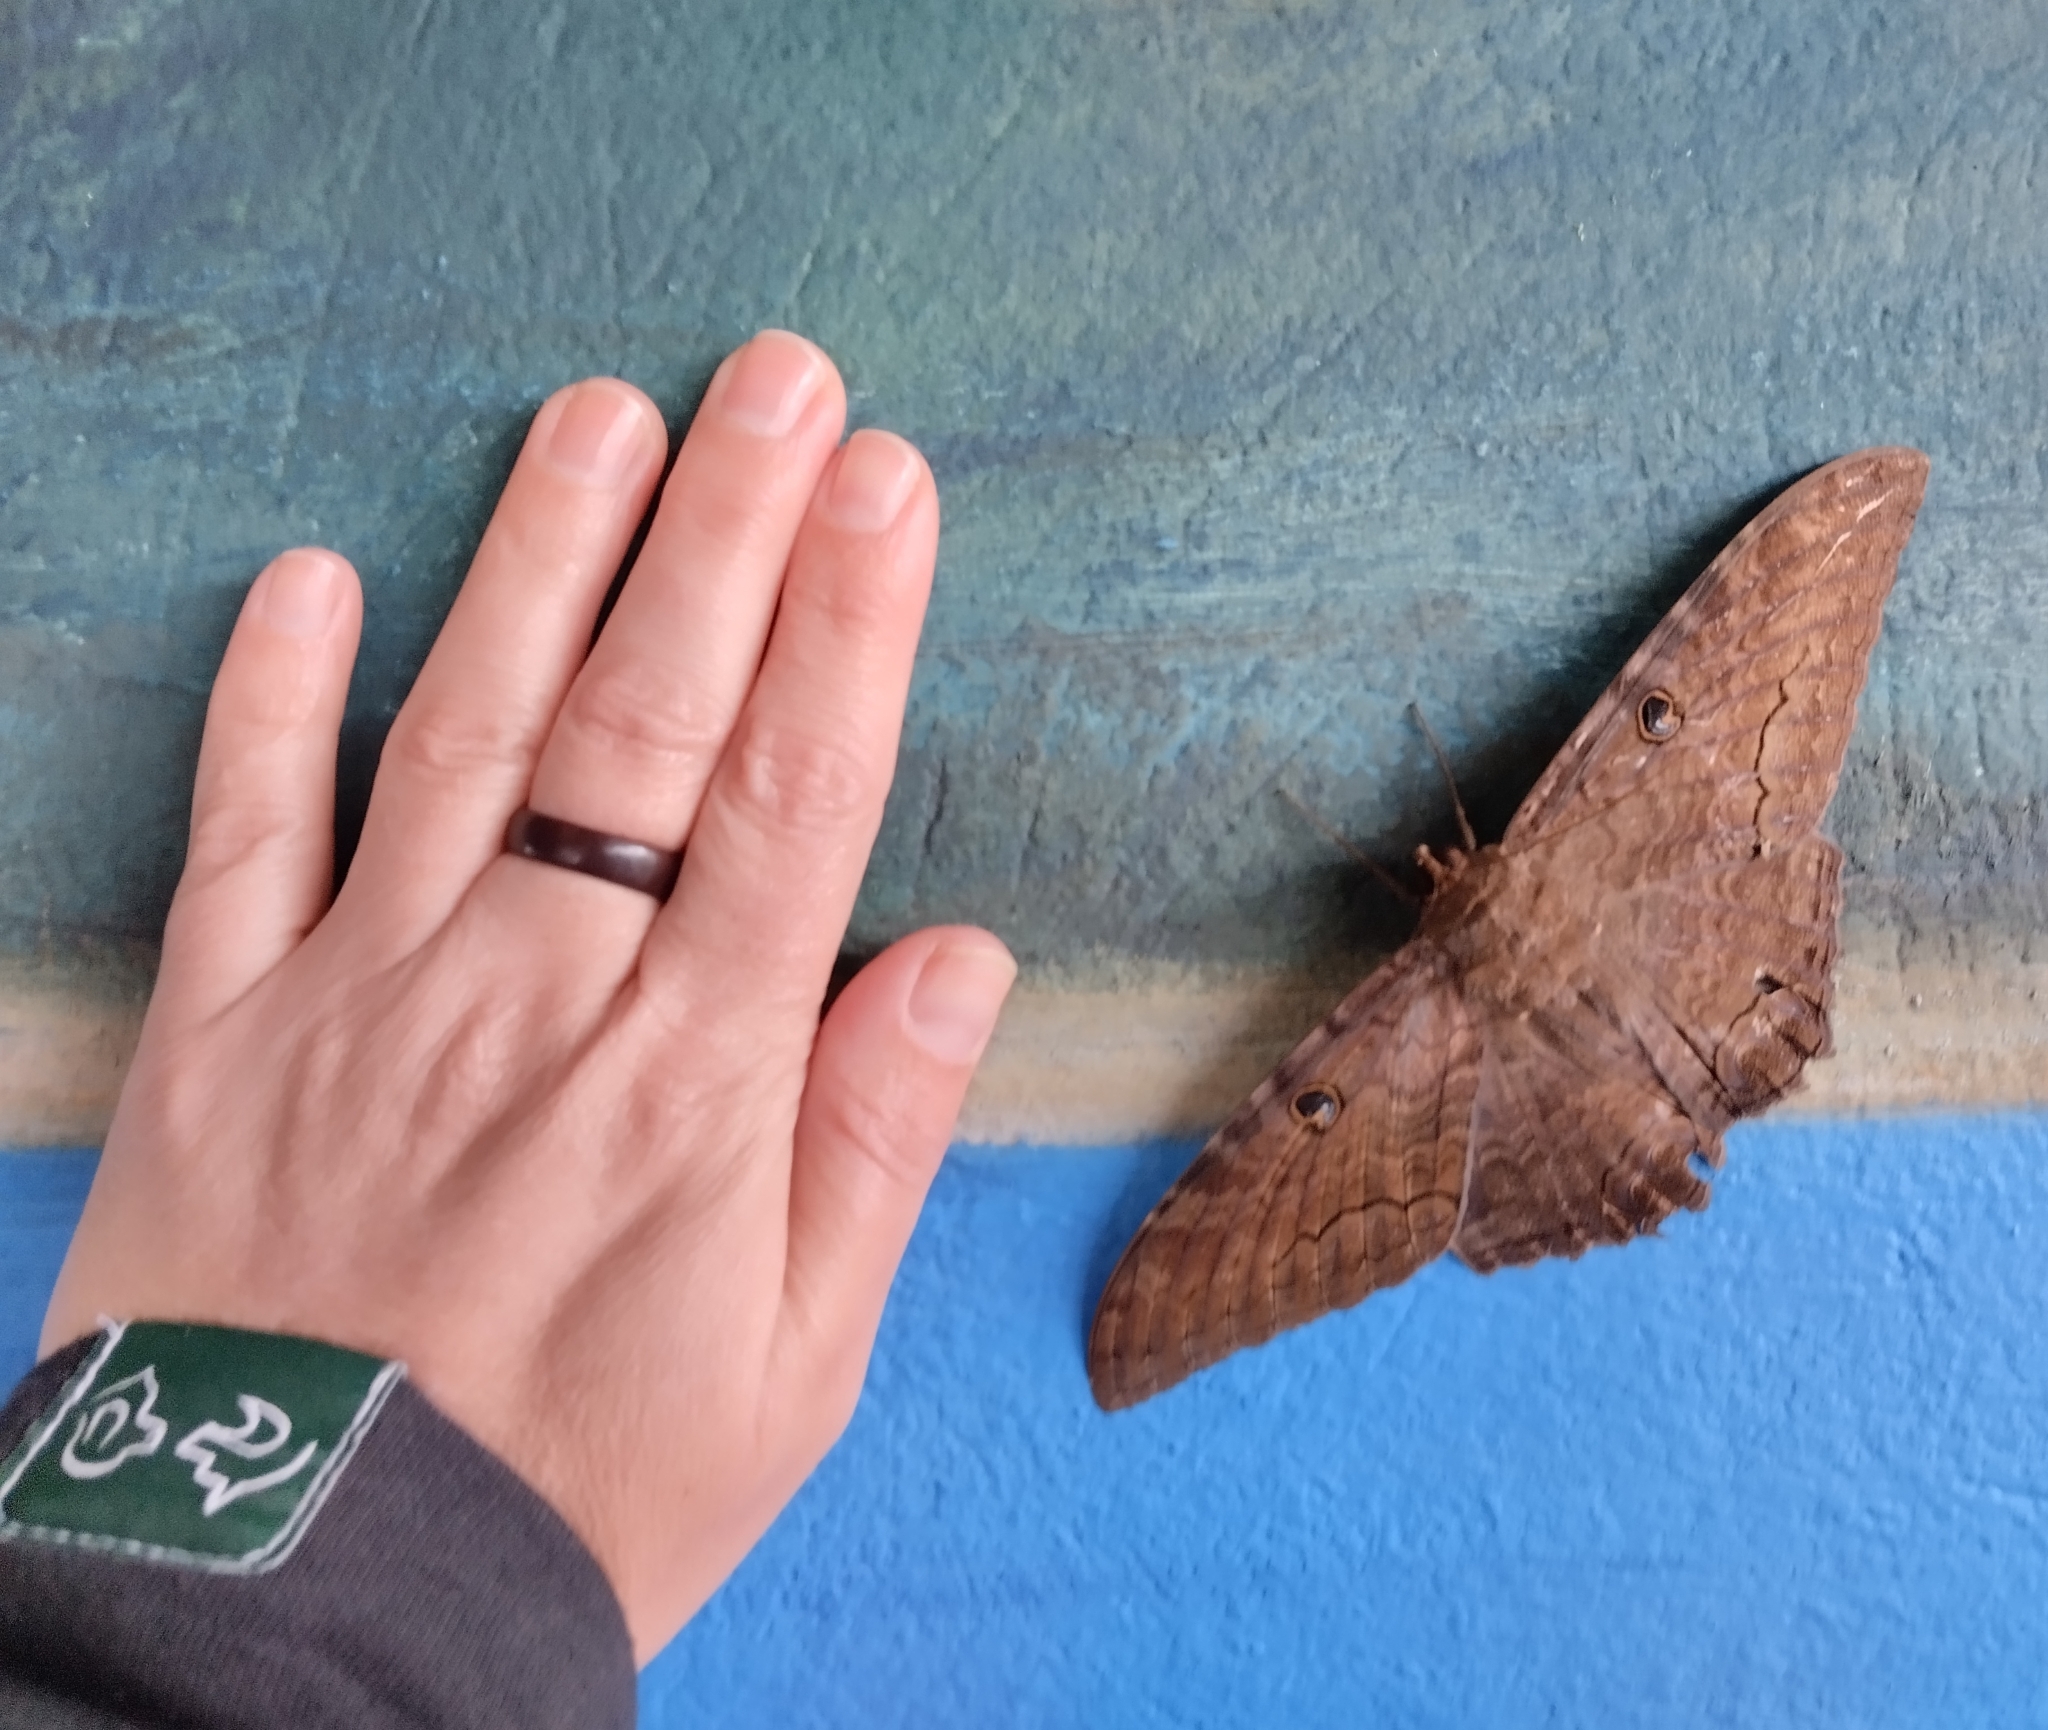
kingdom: Animalia
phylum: Arthropoda
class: Insecta
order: Lepidoptera
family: Erebidae
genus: Ascalapha
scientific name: Ascalapha odorata
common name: Black witch
